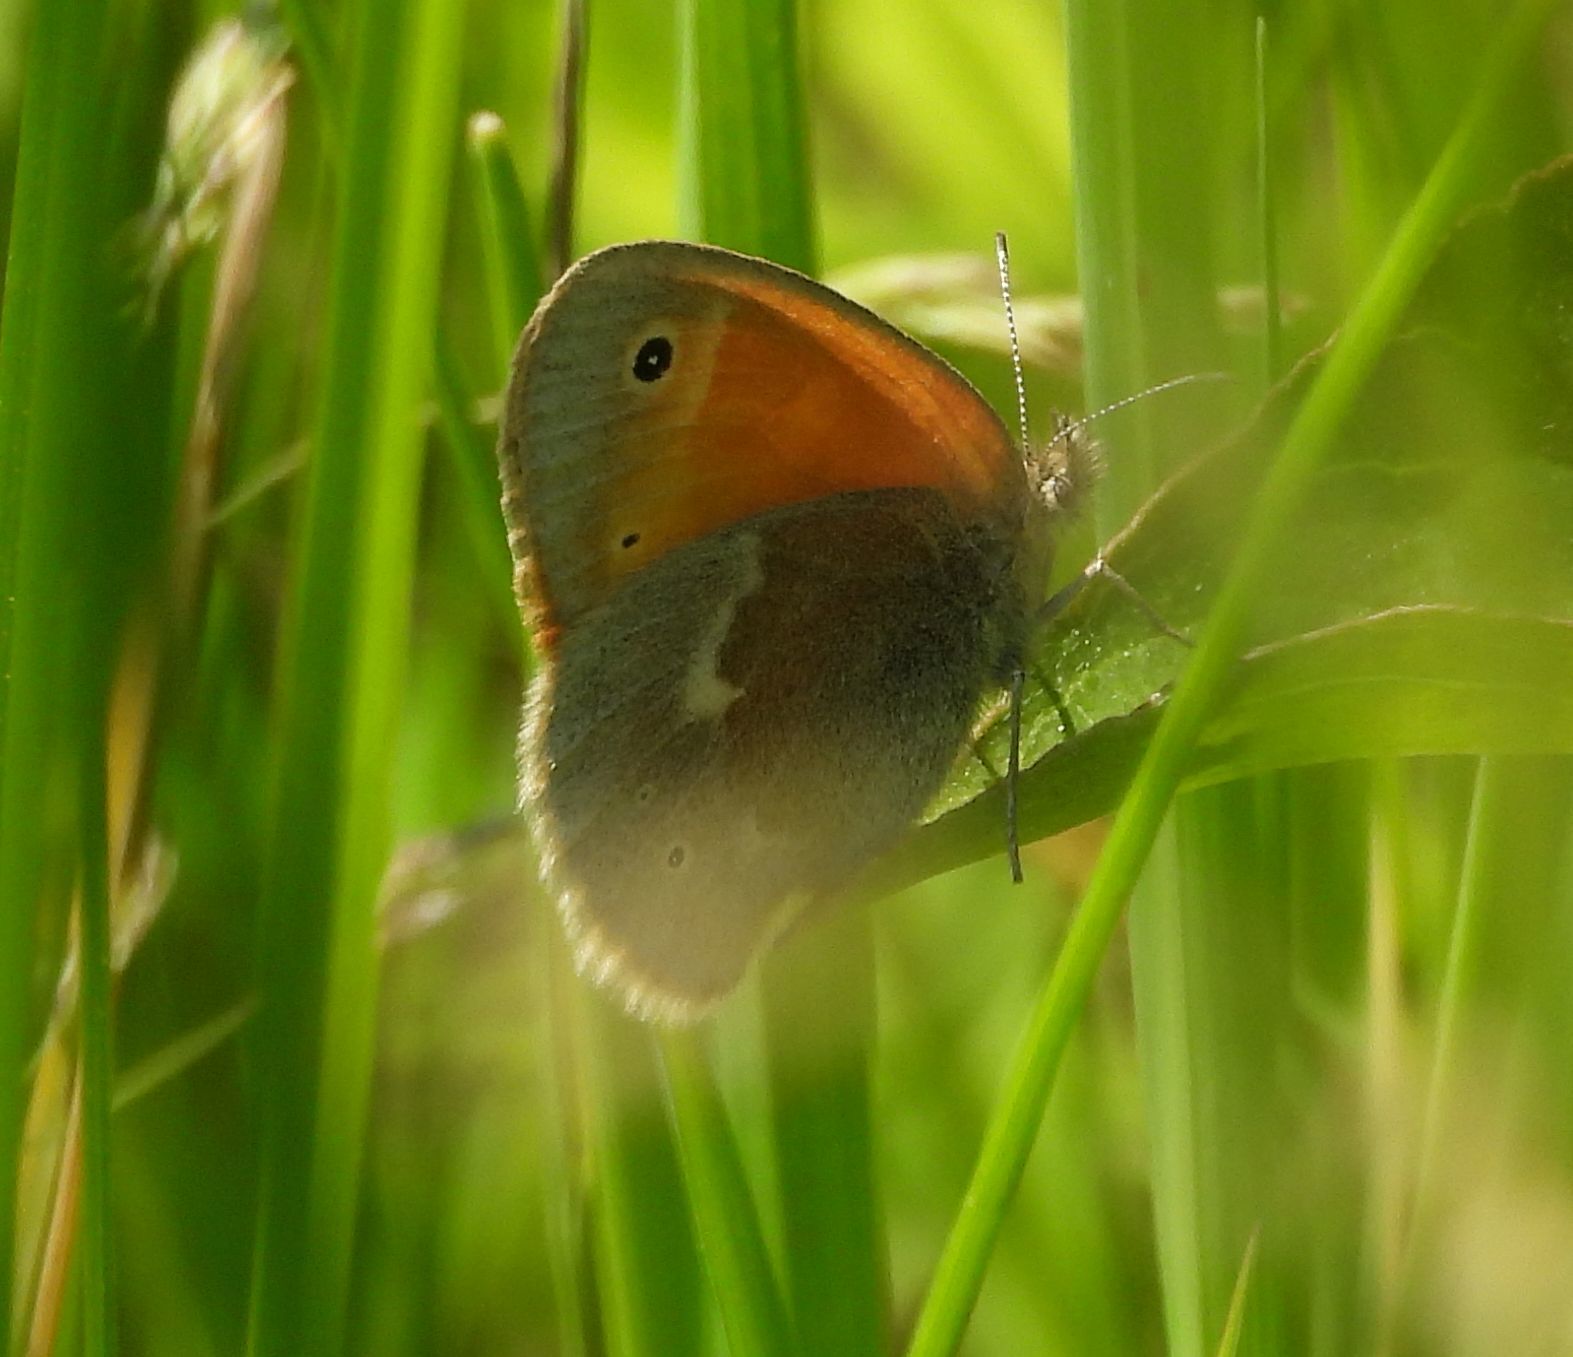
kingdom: Animalia
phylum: Arthropoda
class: Insecta
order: Lepidoptera
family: Nymphalidae
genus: Coenonympha
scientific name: Coenonympha california
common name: Common ringlet
